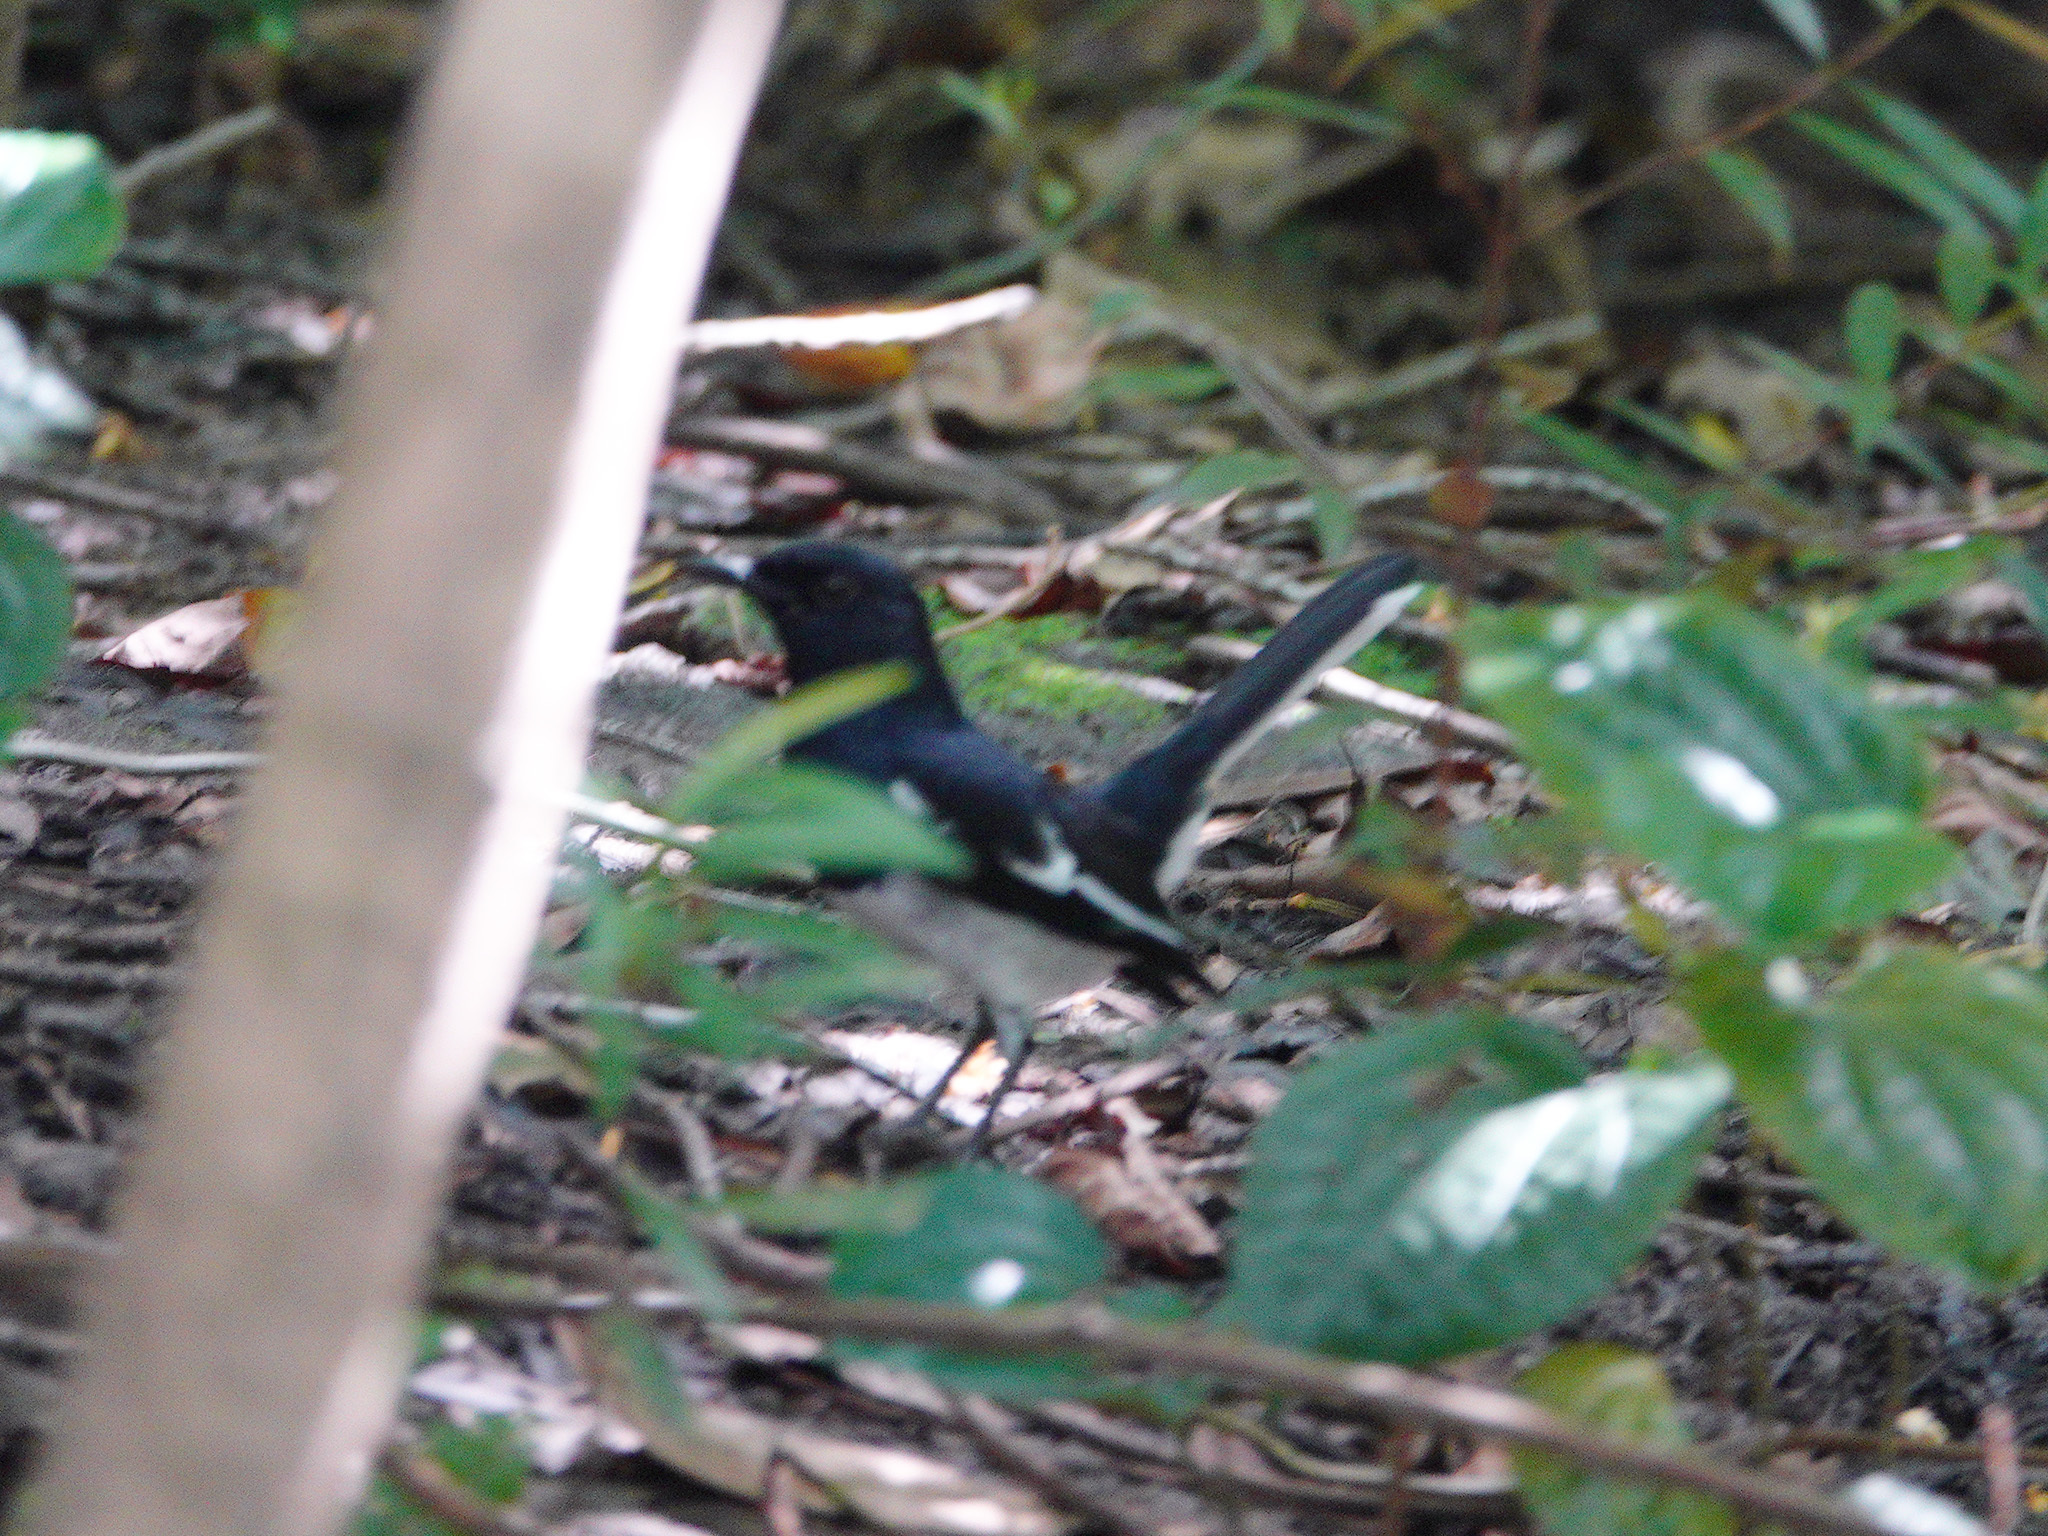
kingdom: Animalia
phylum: Chordata
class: Aves
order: Passeriformes
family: Muscicapidae
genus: Copsychus
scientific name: Copsychus saularis
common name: Oriental magpie-robin
